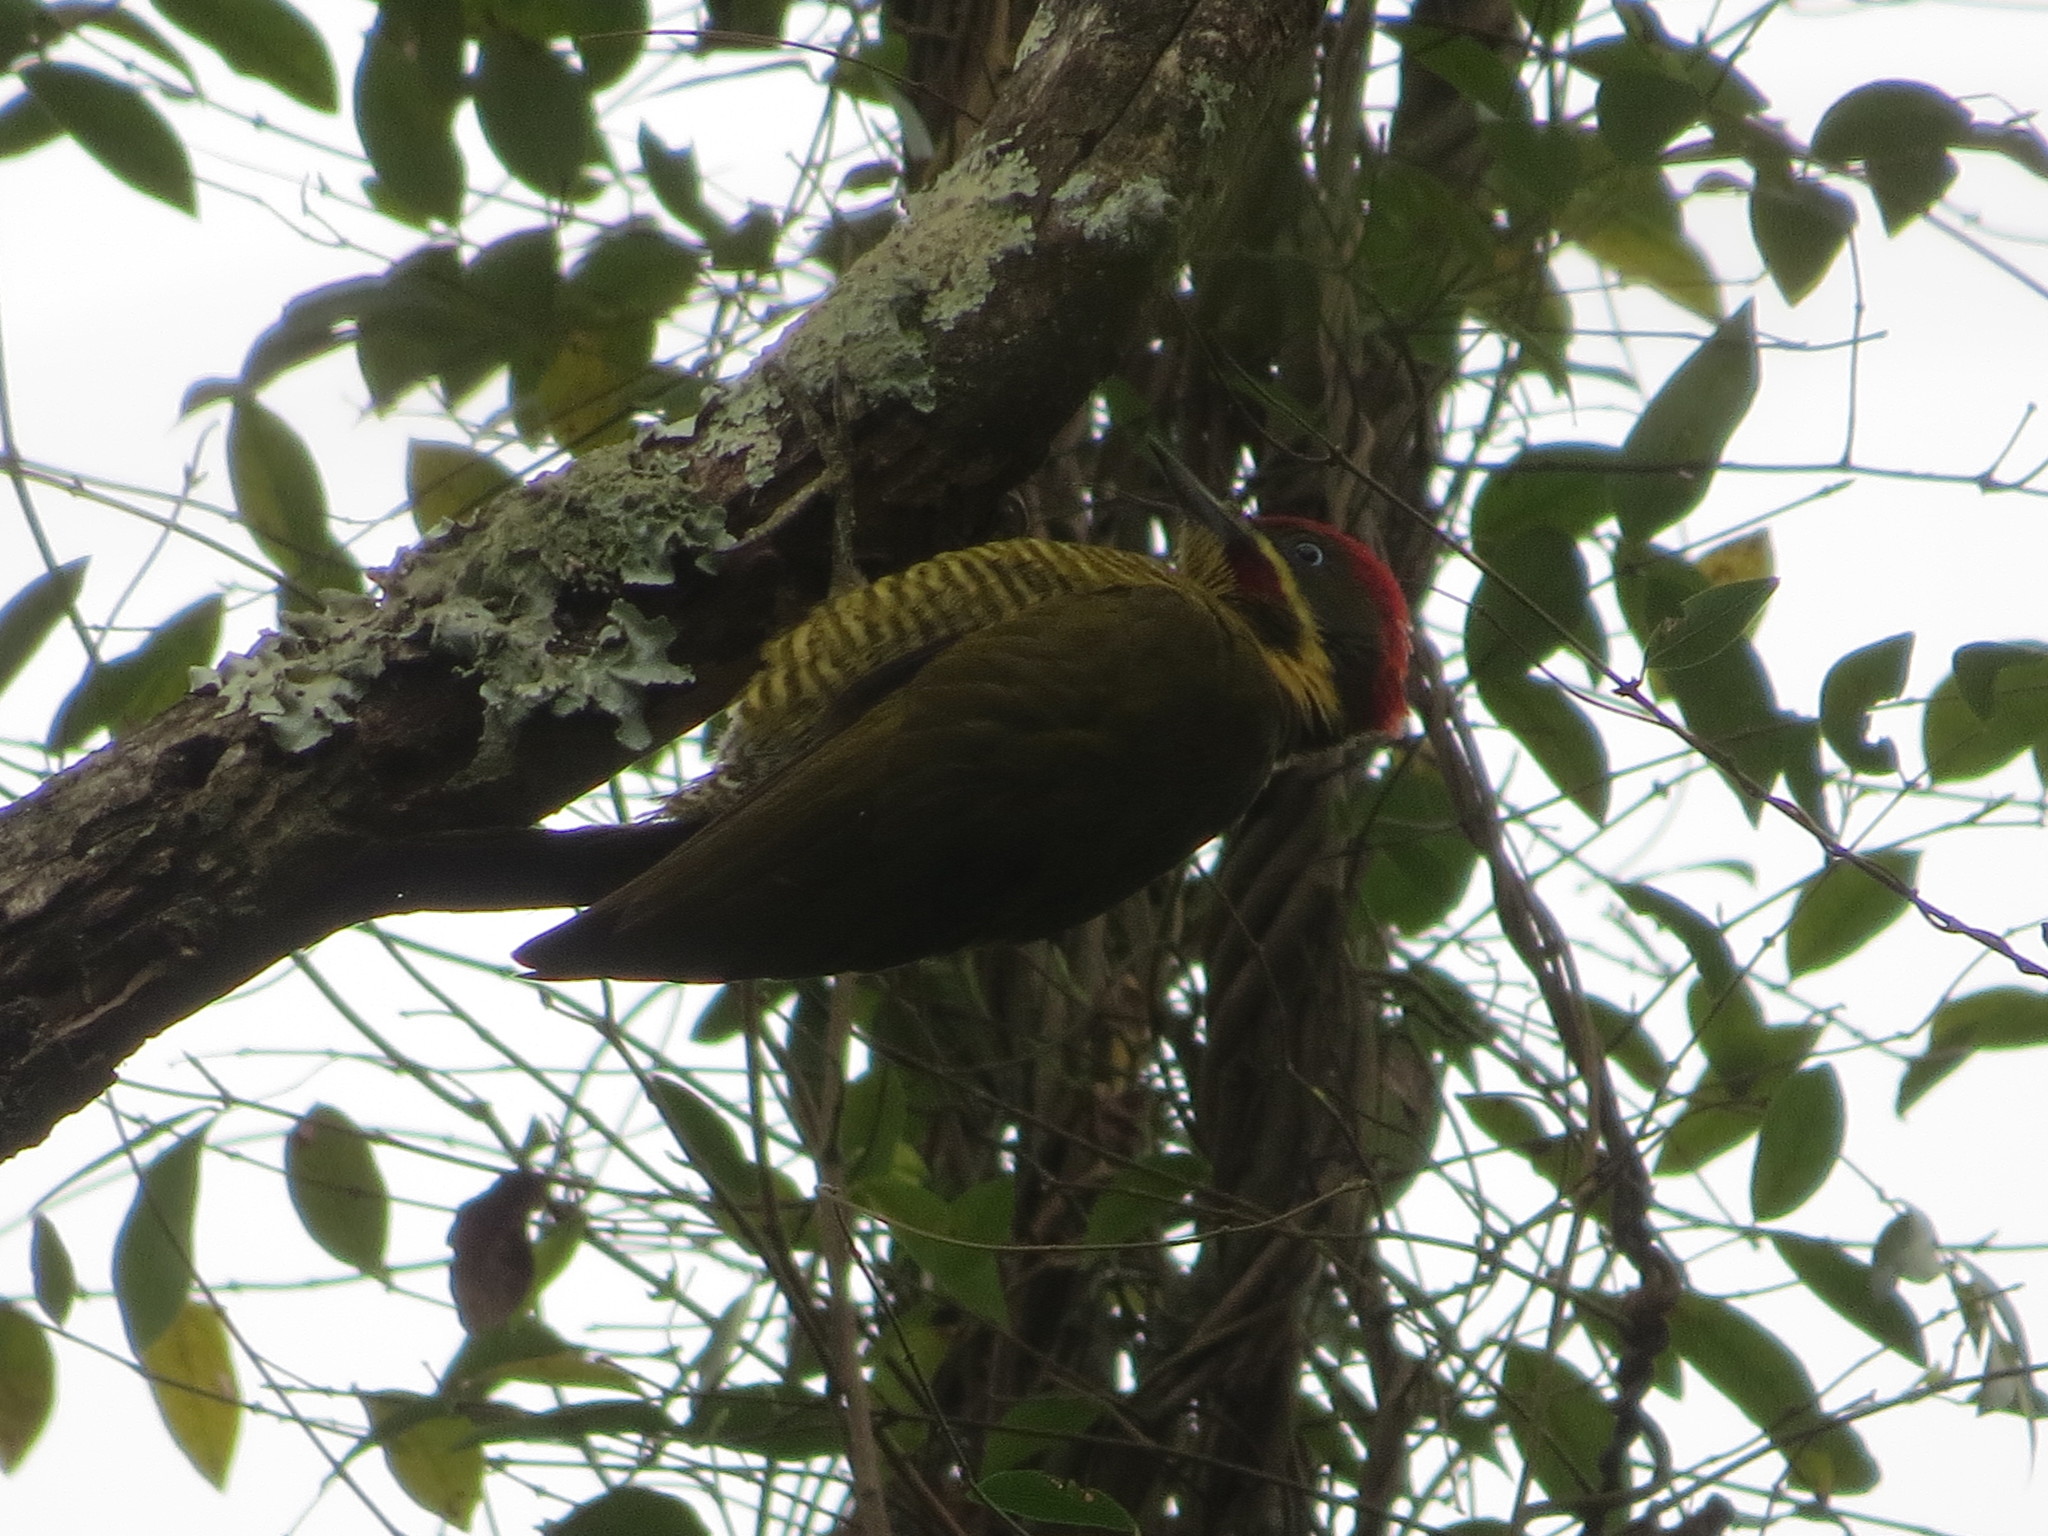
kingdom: Animalia
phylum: Chordata
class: Aves
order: Piciformes
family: Picidae
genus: Piculus
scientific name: Piculus chrysochloros
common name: Golden-green woodpecker
